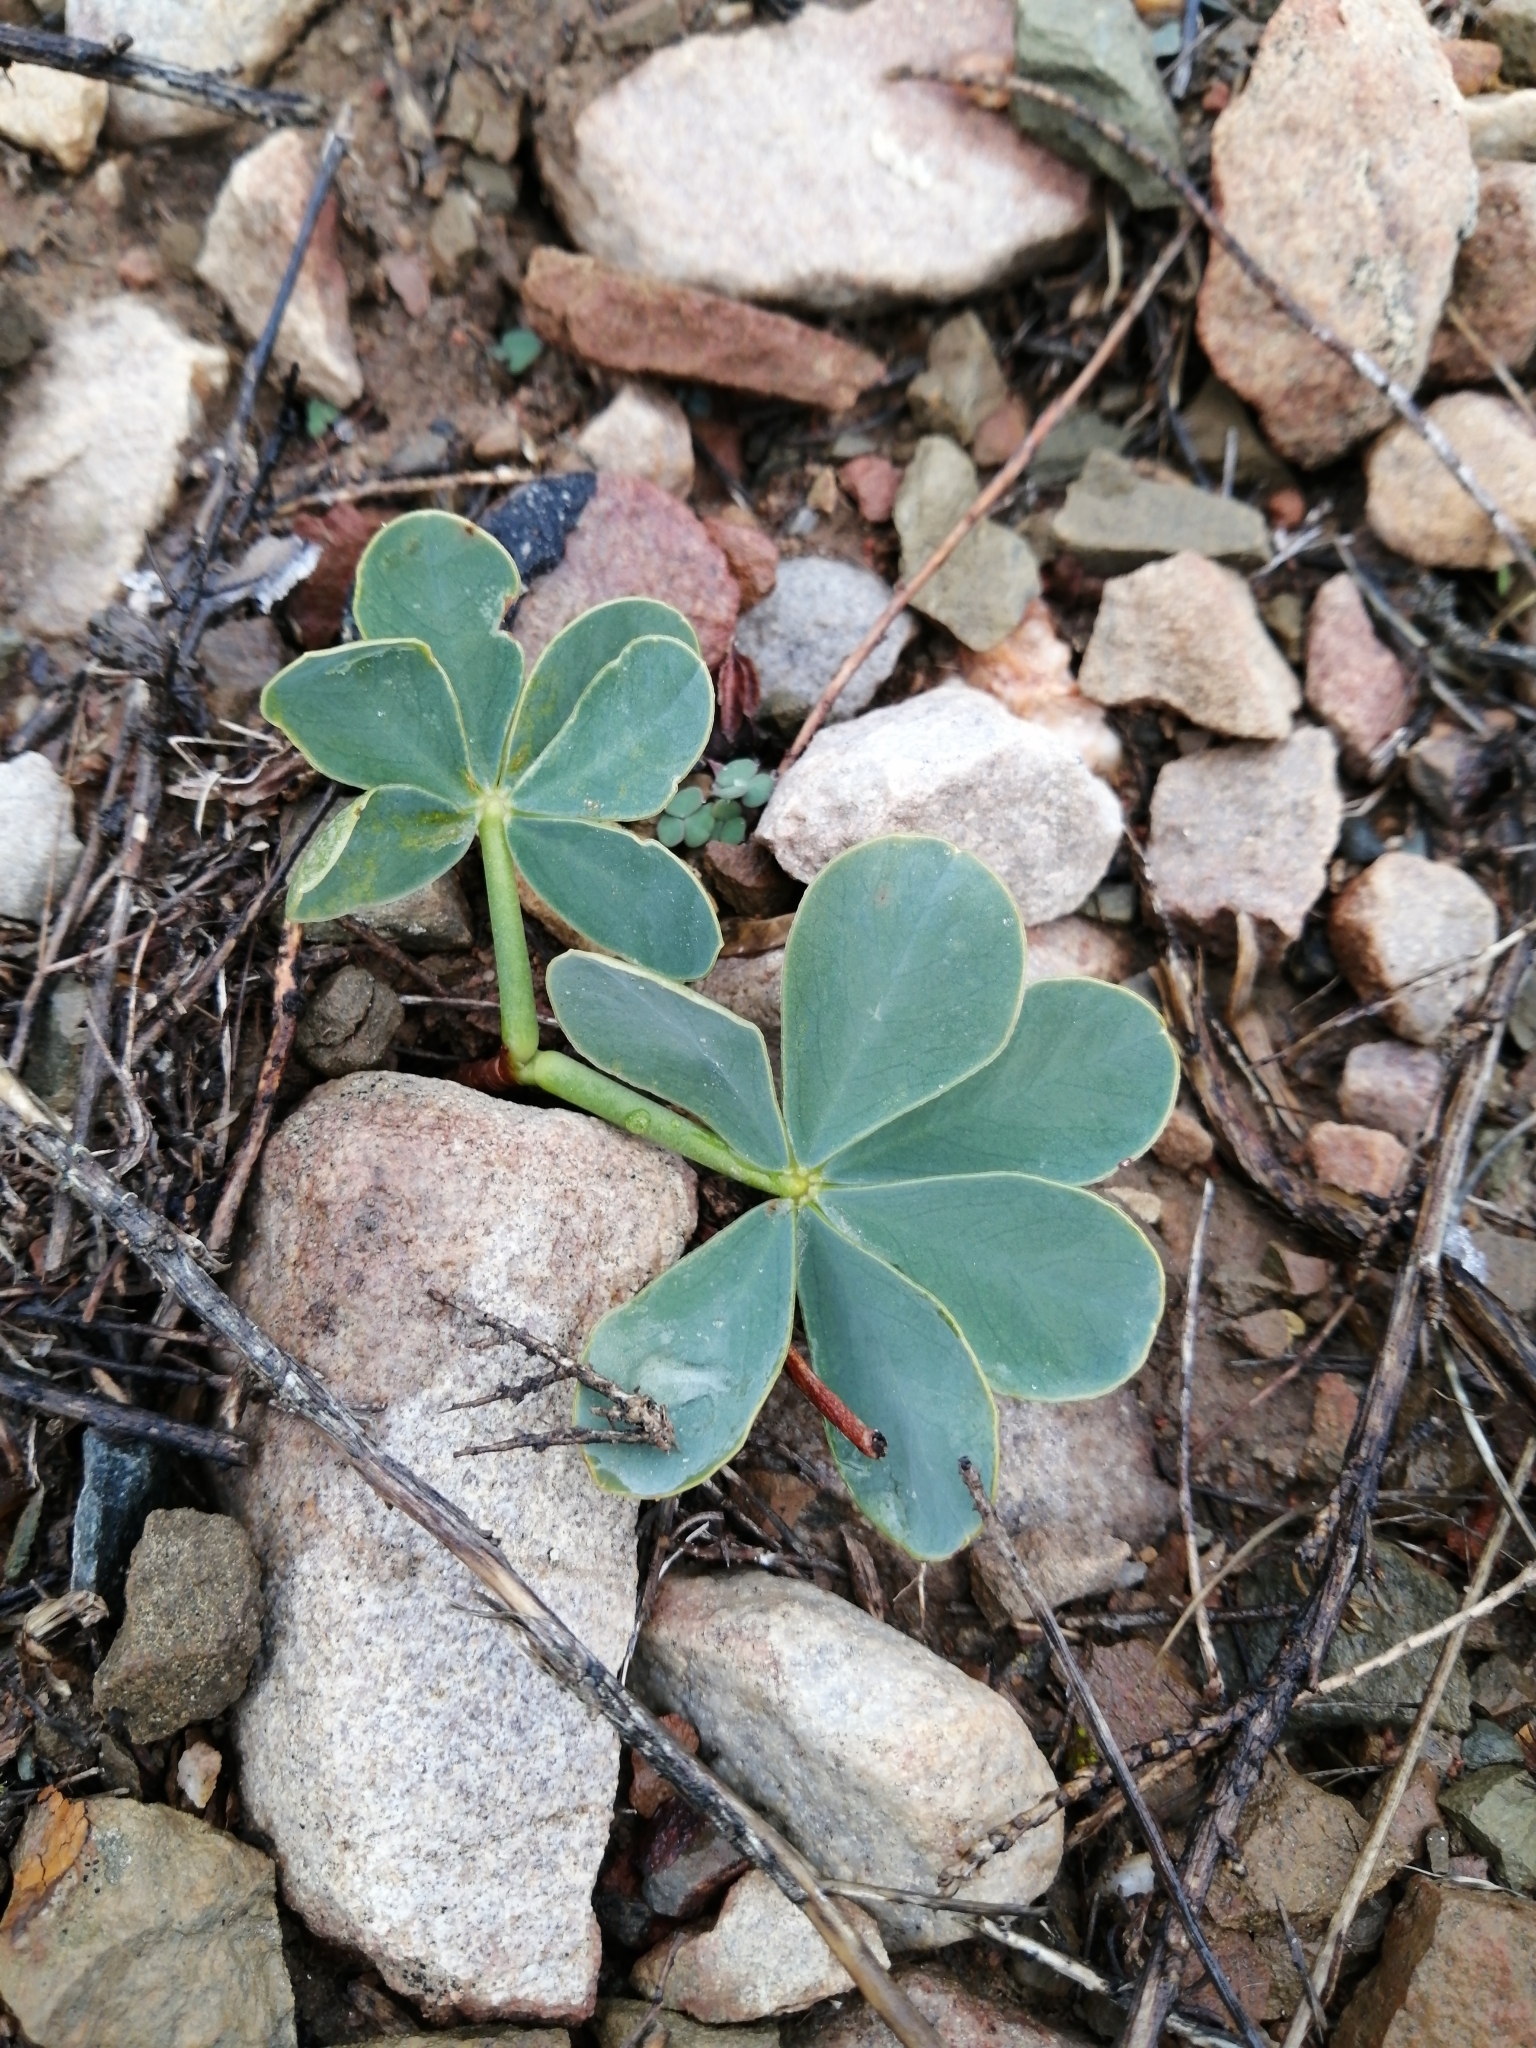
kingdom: Plantae
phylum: Tracheophyta
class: Magnoliopsida
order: Oxalidales
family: Oxalidaceae
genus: Oxalis
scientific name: Oxalis flava
